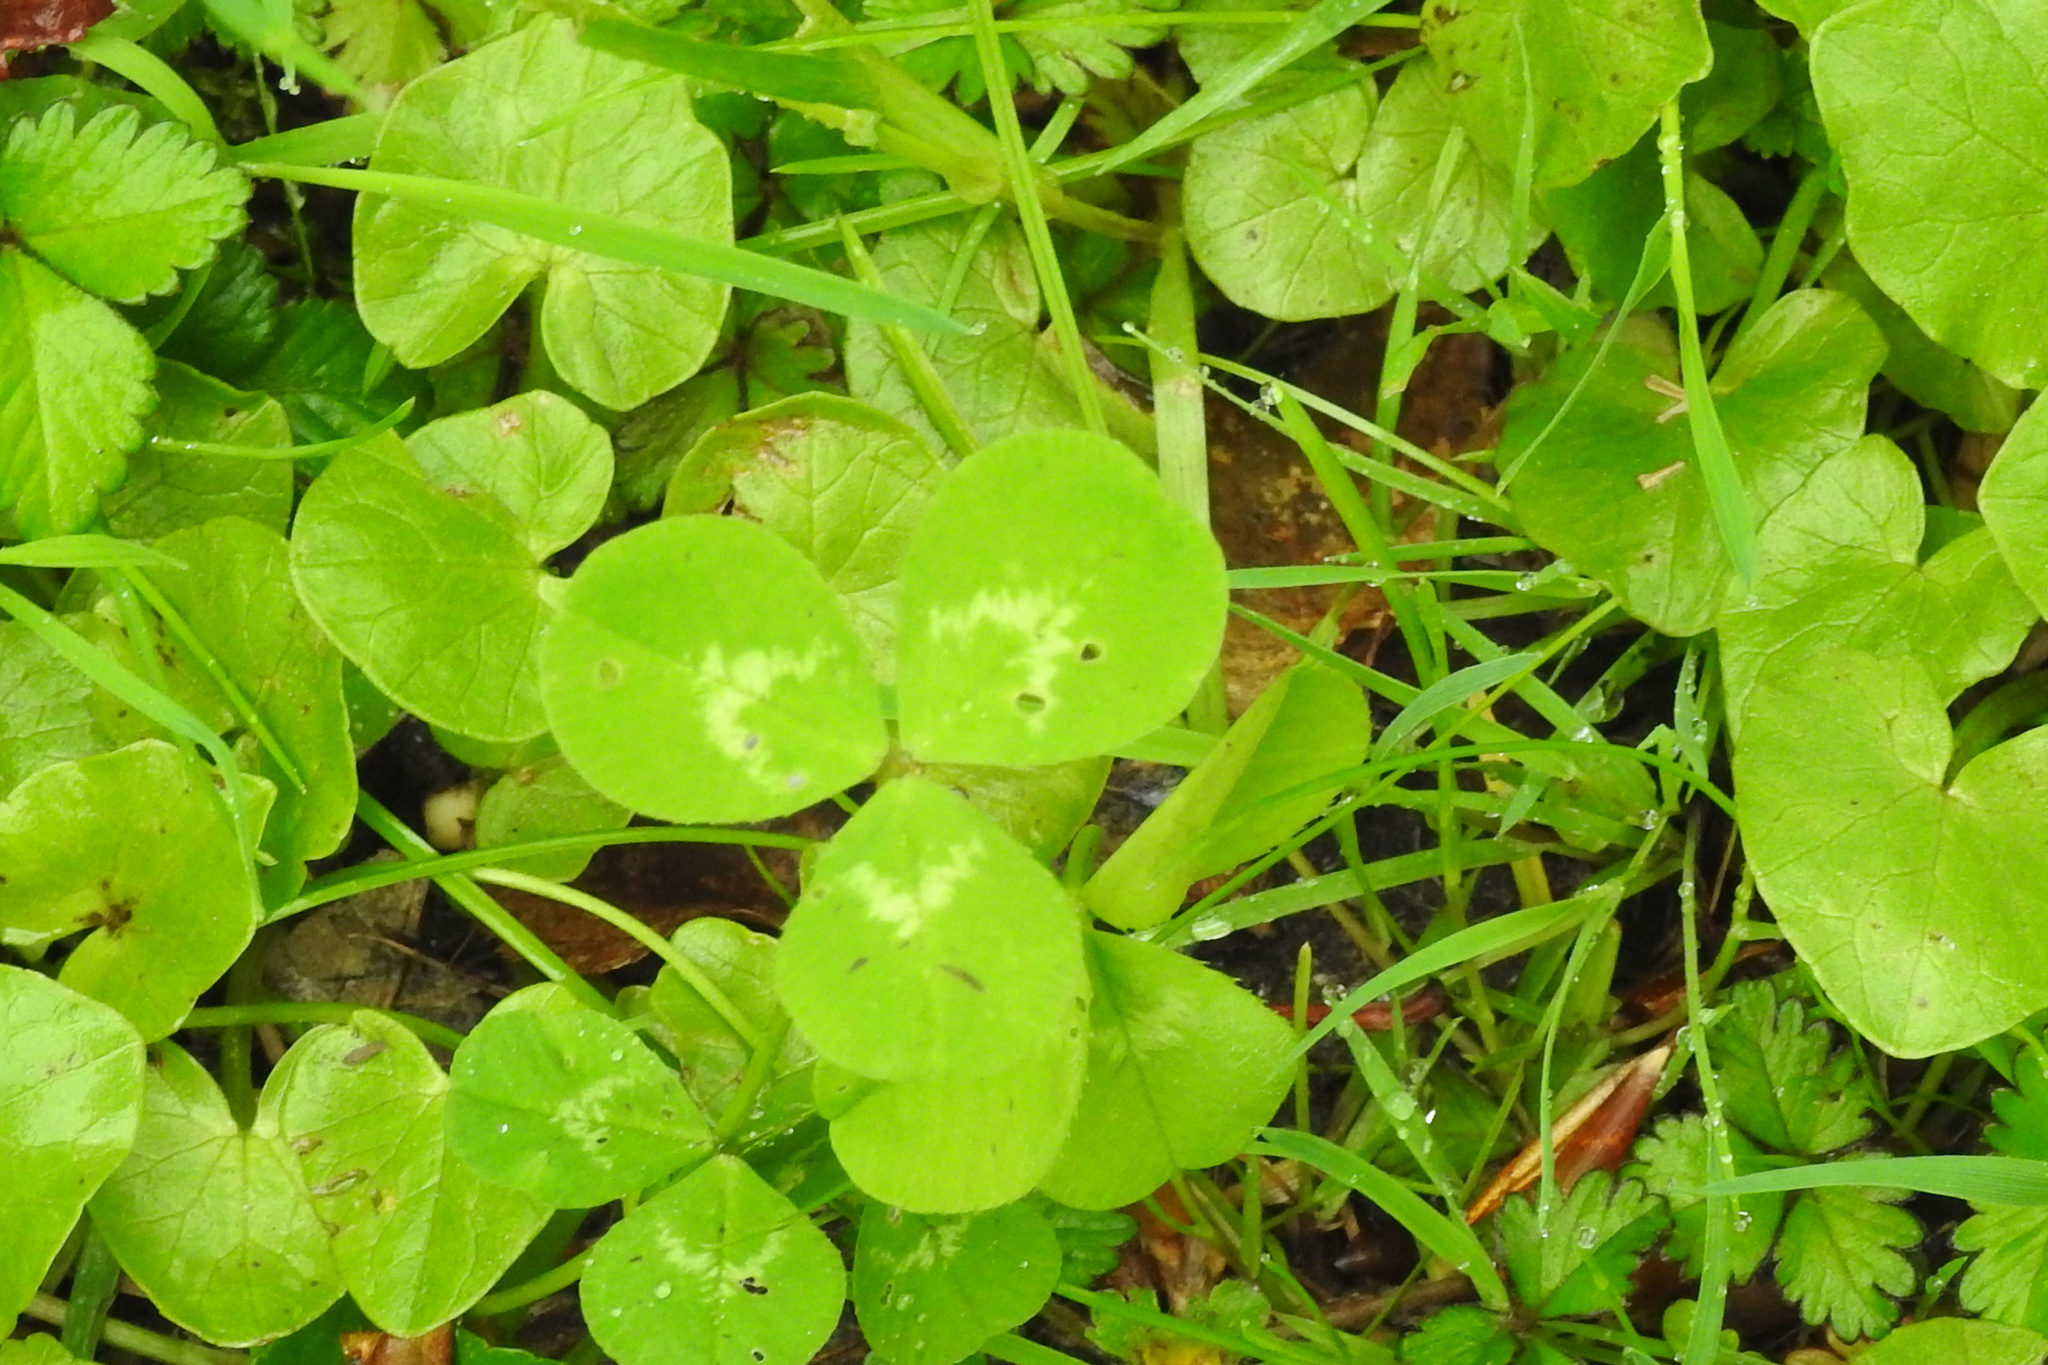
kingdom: Plantae
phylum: Tracheophyta
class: Magnoliopsida
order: Fabales
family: Fabaceae
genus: Trifolium
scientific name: Trifolium repens
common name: White clover
